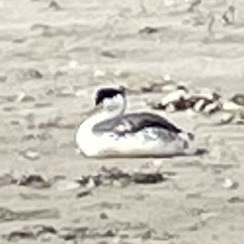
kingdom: Animalia
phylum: Chordata
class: Aves
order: Podicipediformes
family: Podicipedidae
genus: Aechmophorus
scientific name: Aechmophorus clarkii
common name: Clark's grebe
